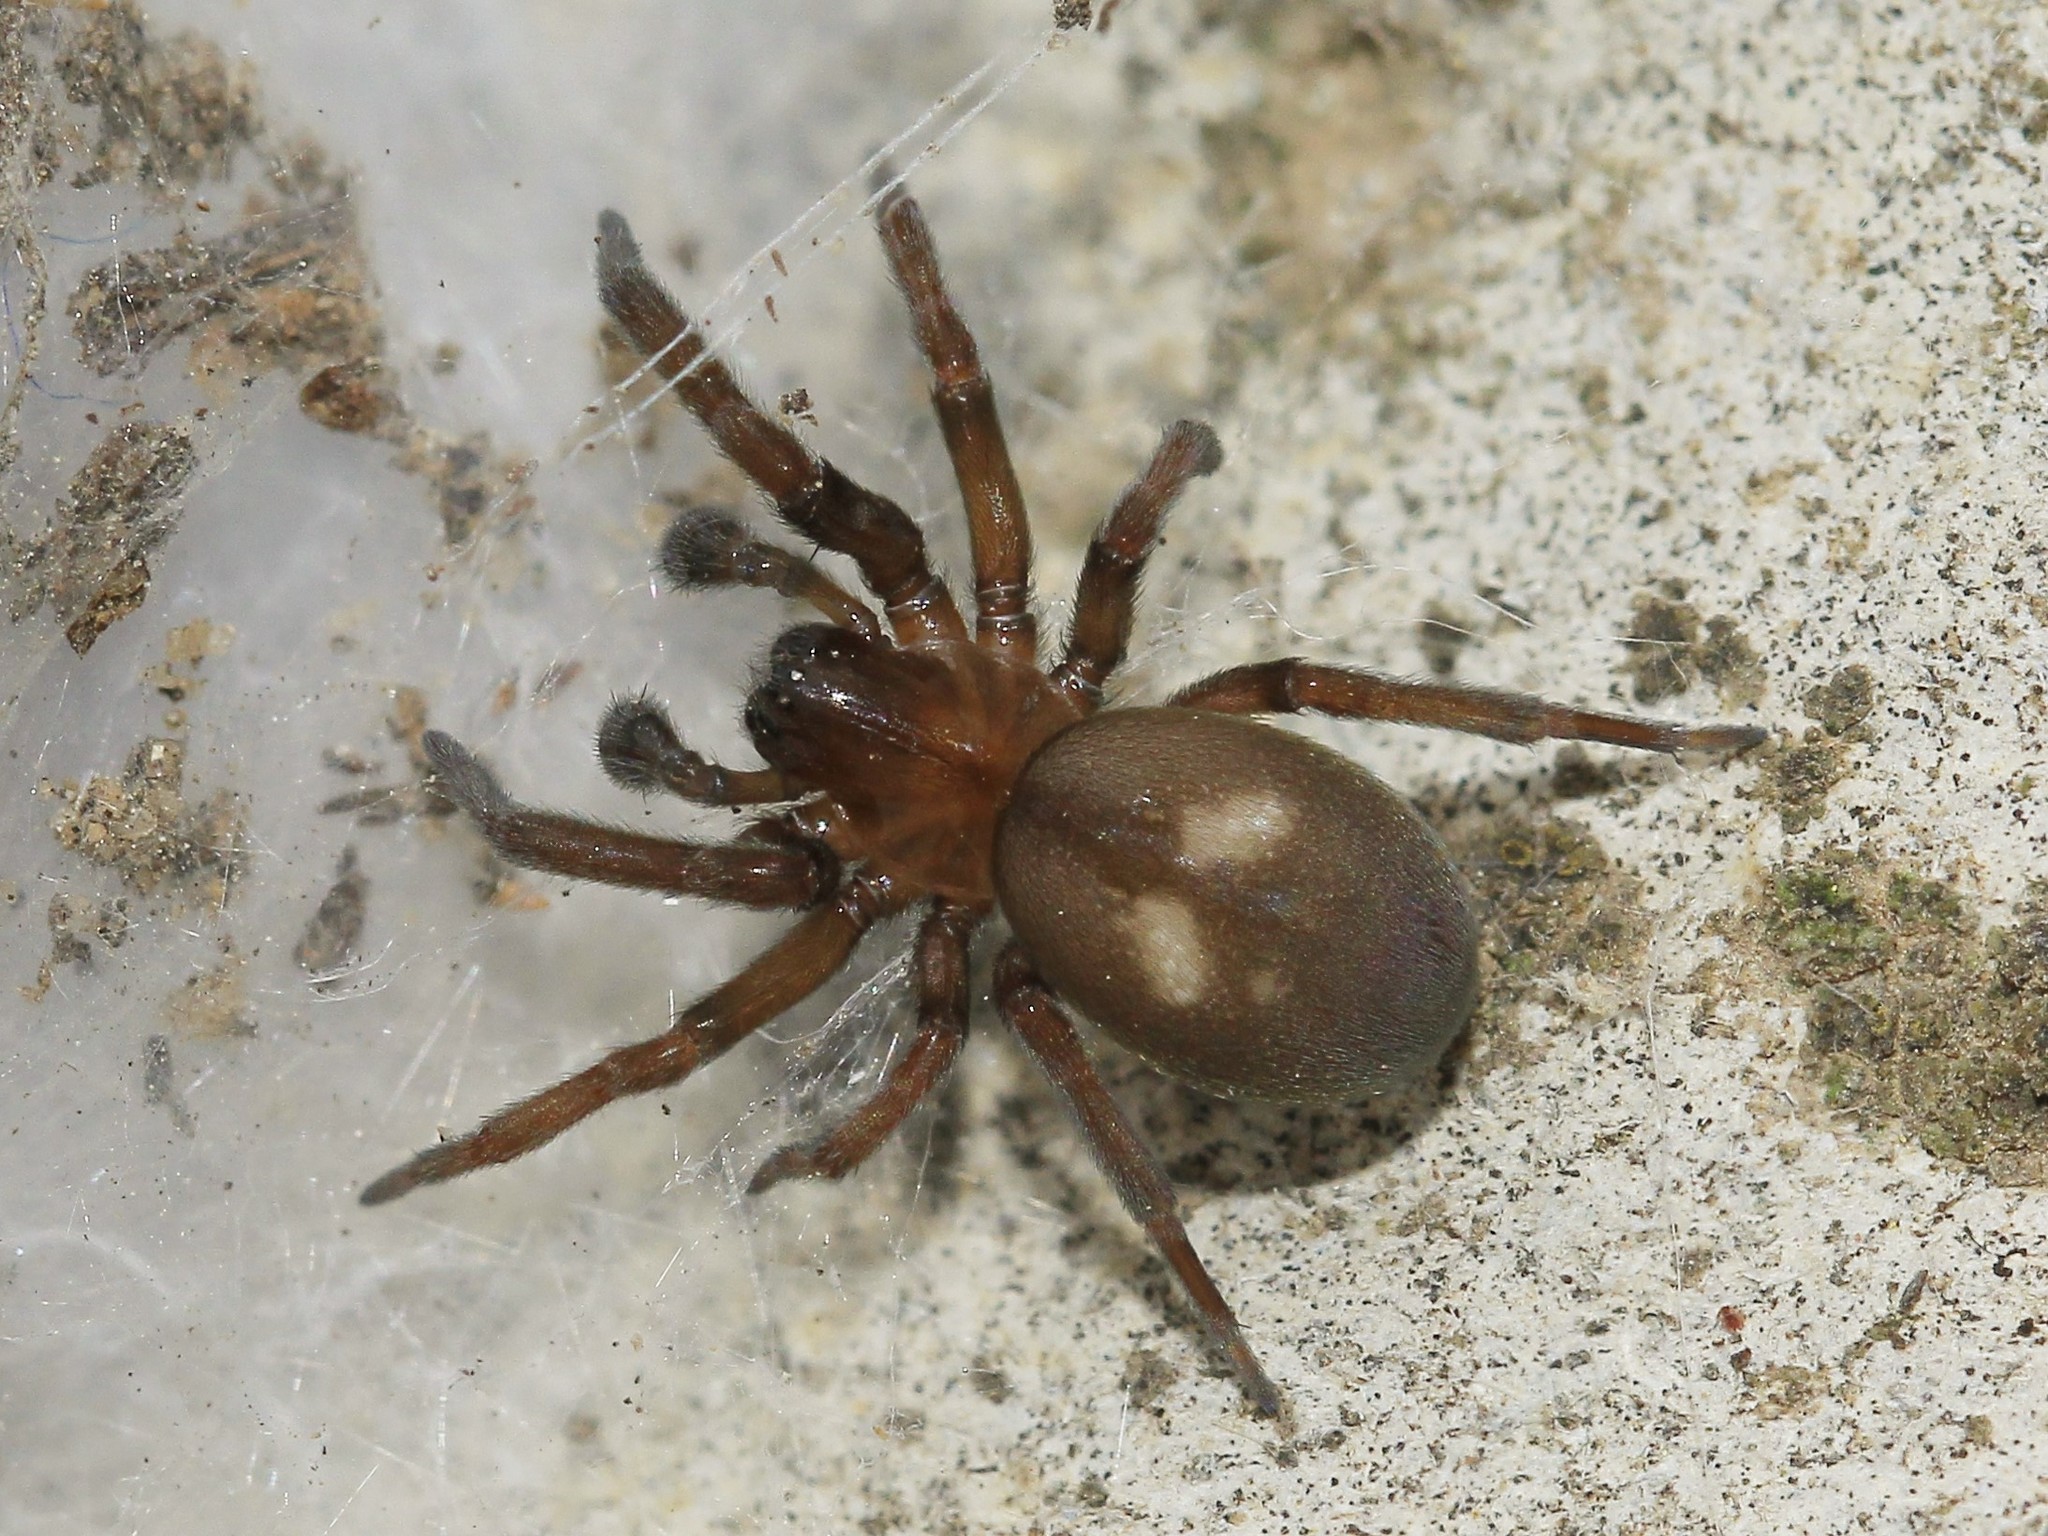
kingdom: Animalia
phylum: Arthropoda
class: Arachnida
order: Araneae
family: Titanoecidae
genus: Titanoeca
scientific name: Titanoeca schineri
